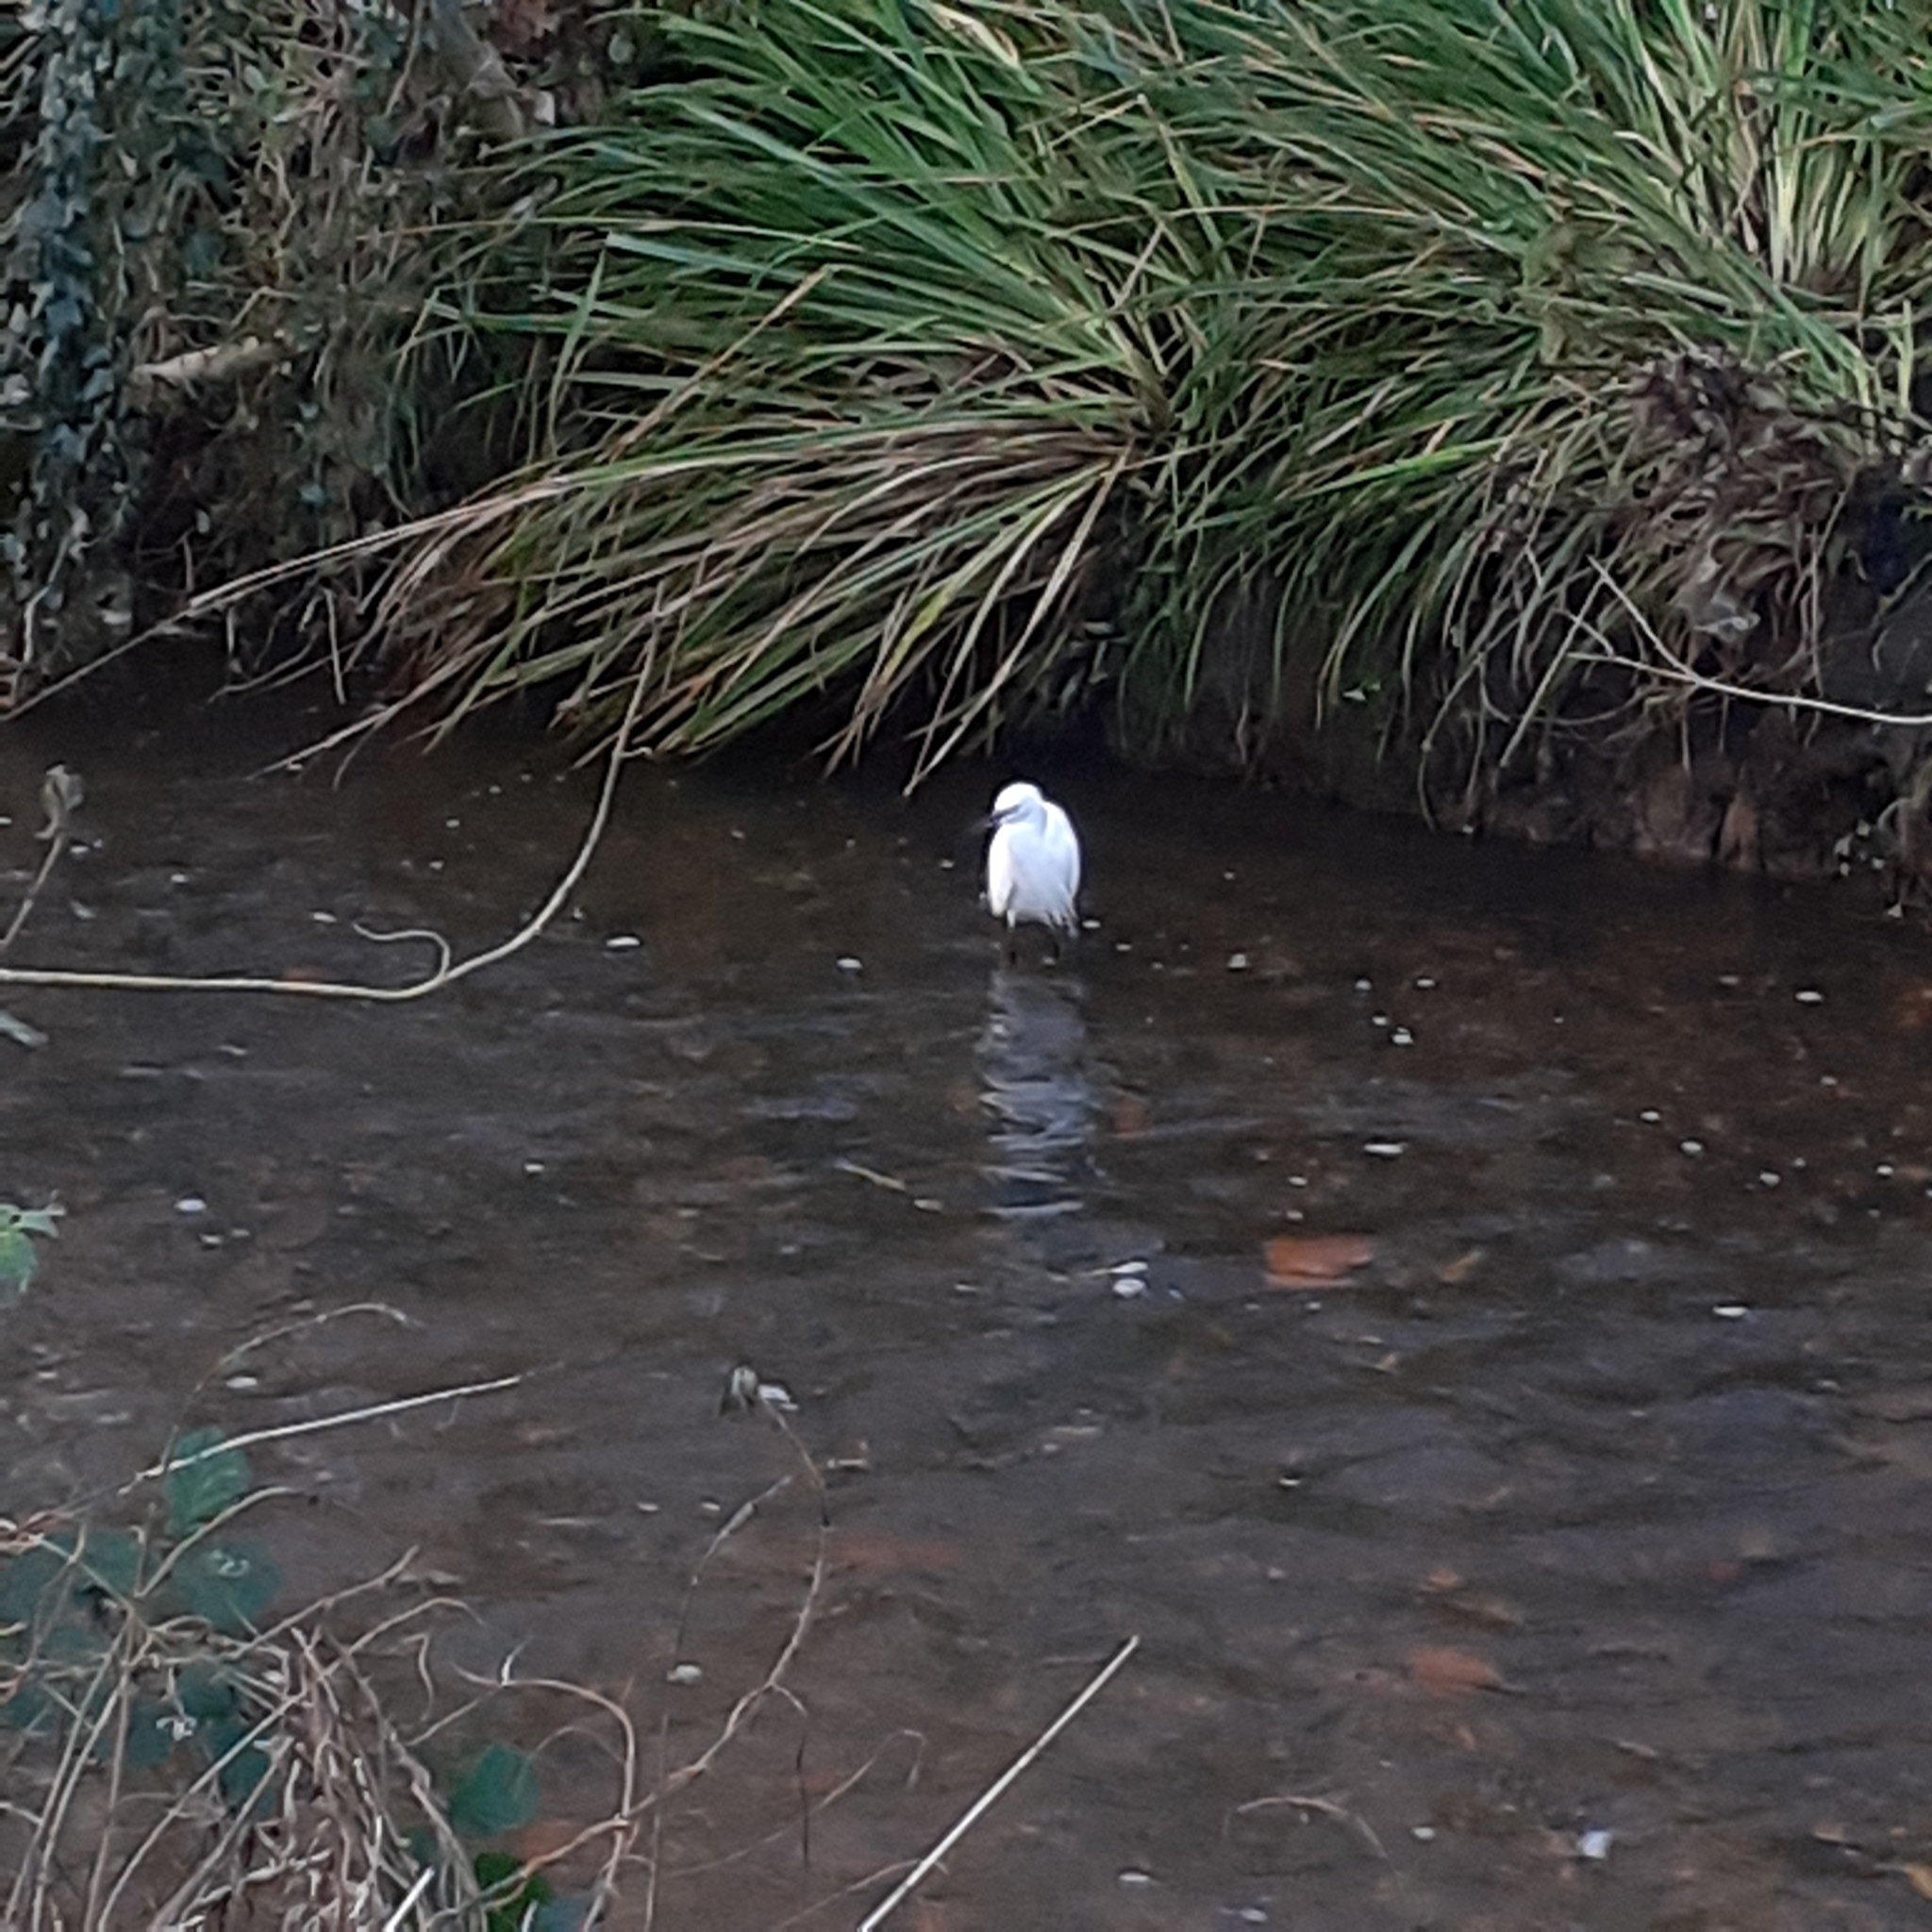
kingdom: Animalia
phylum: Chordata
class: Aves
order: Pelecaniformes
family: Ardeidae
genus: Egretta
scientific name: Egretta garzetta
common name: Little egret
